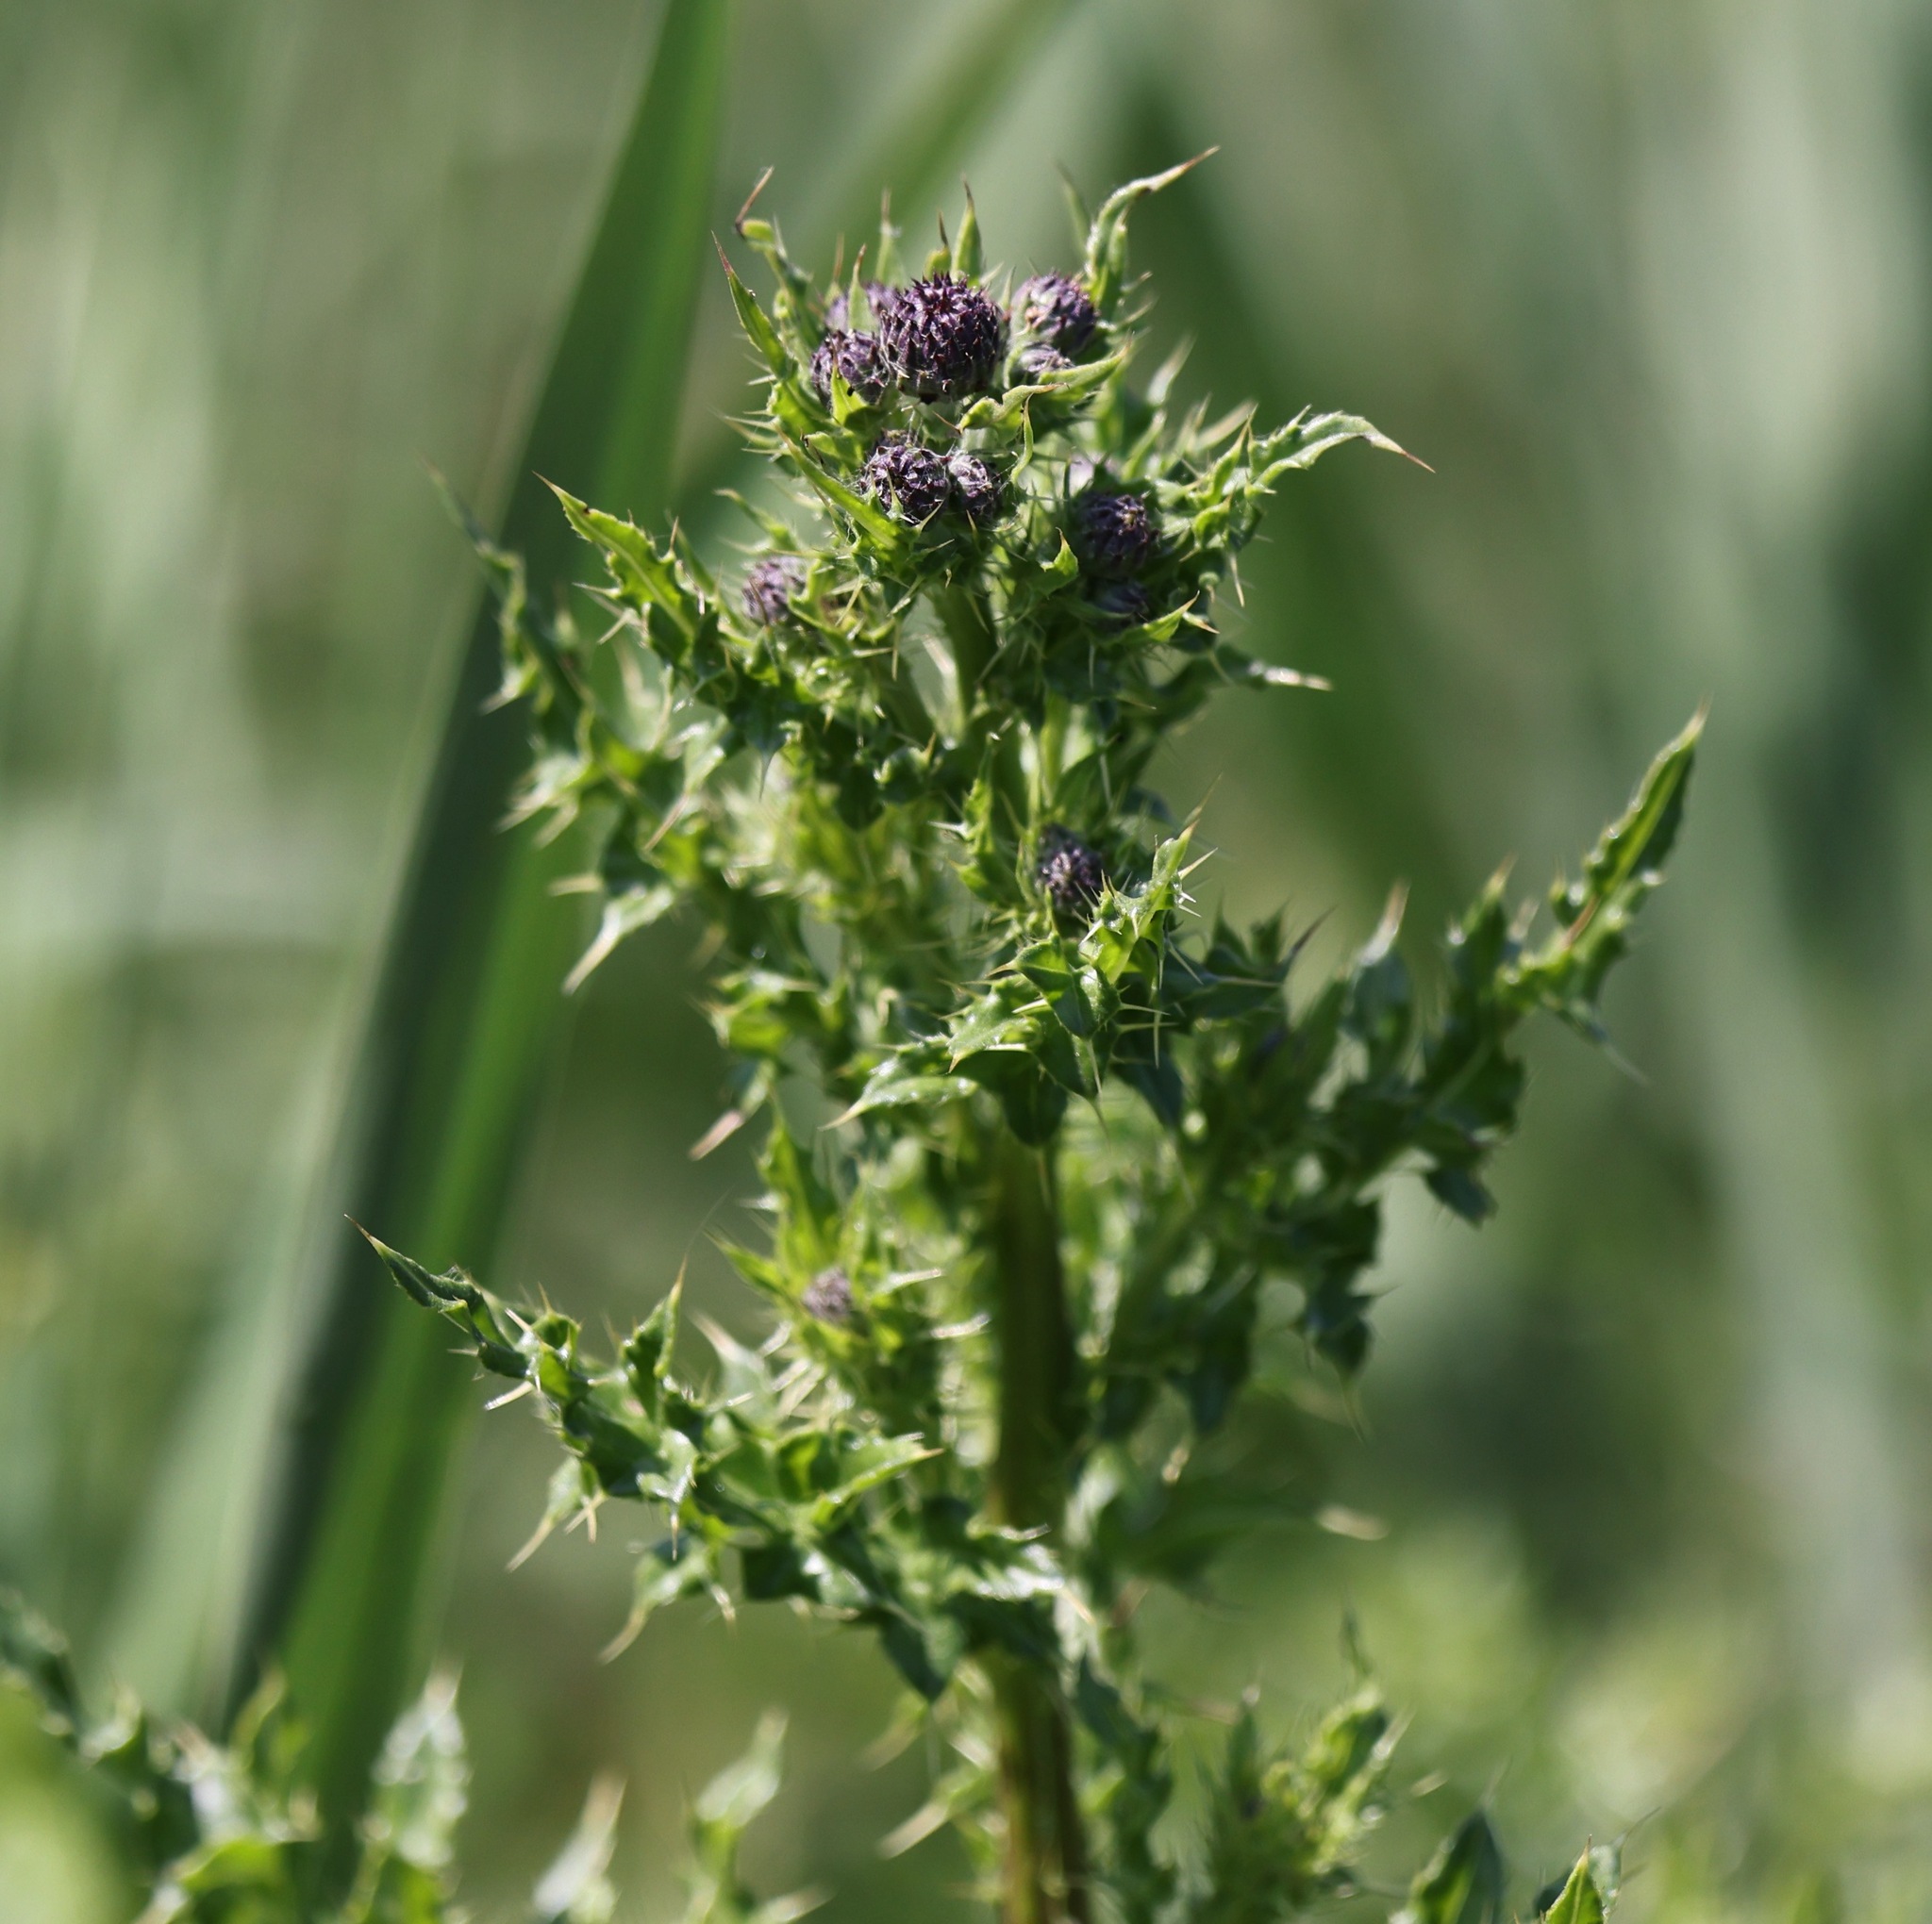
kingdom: Plantae
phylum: Tracheophyta
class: Magnoliopsida
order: Asterales
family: Asteraceae
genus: Cirsium
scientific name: Cirsium arvense
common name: Creeping thistle
